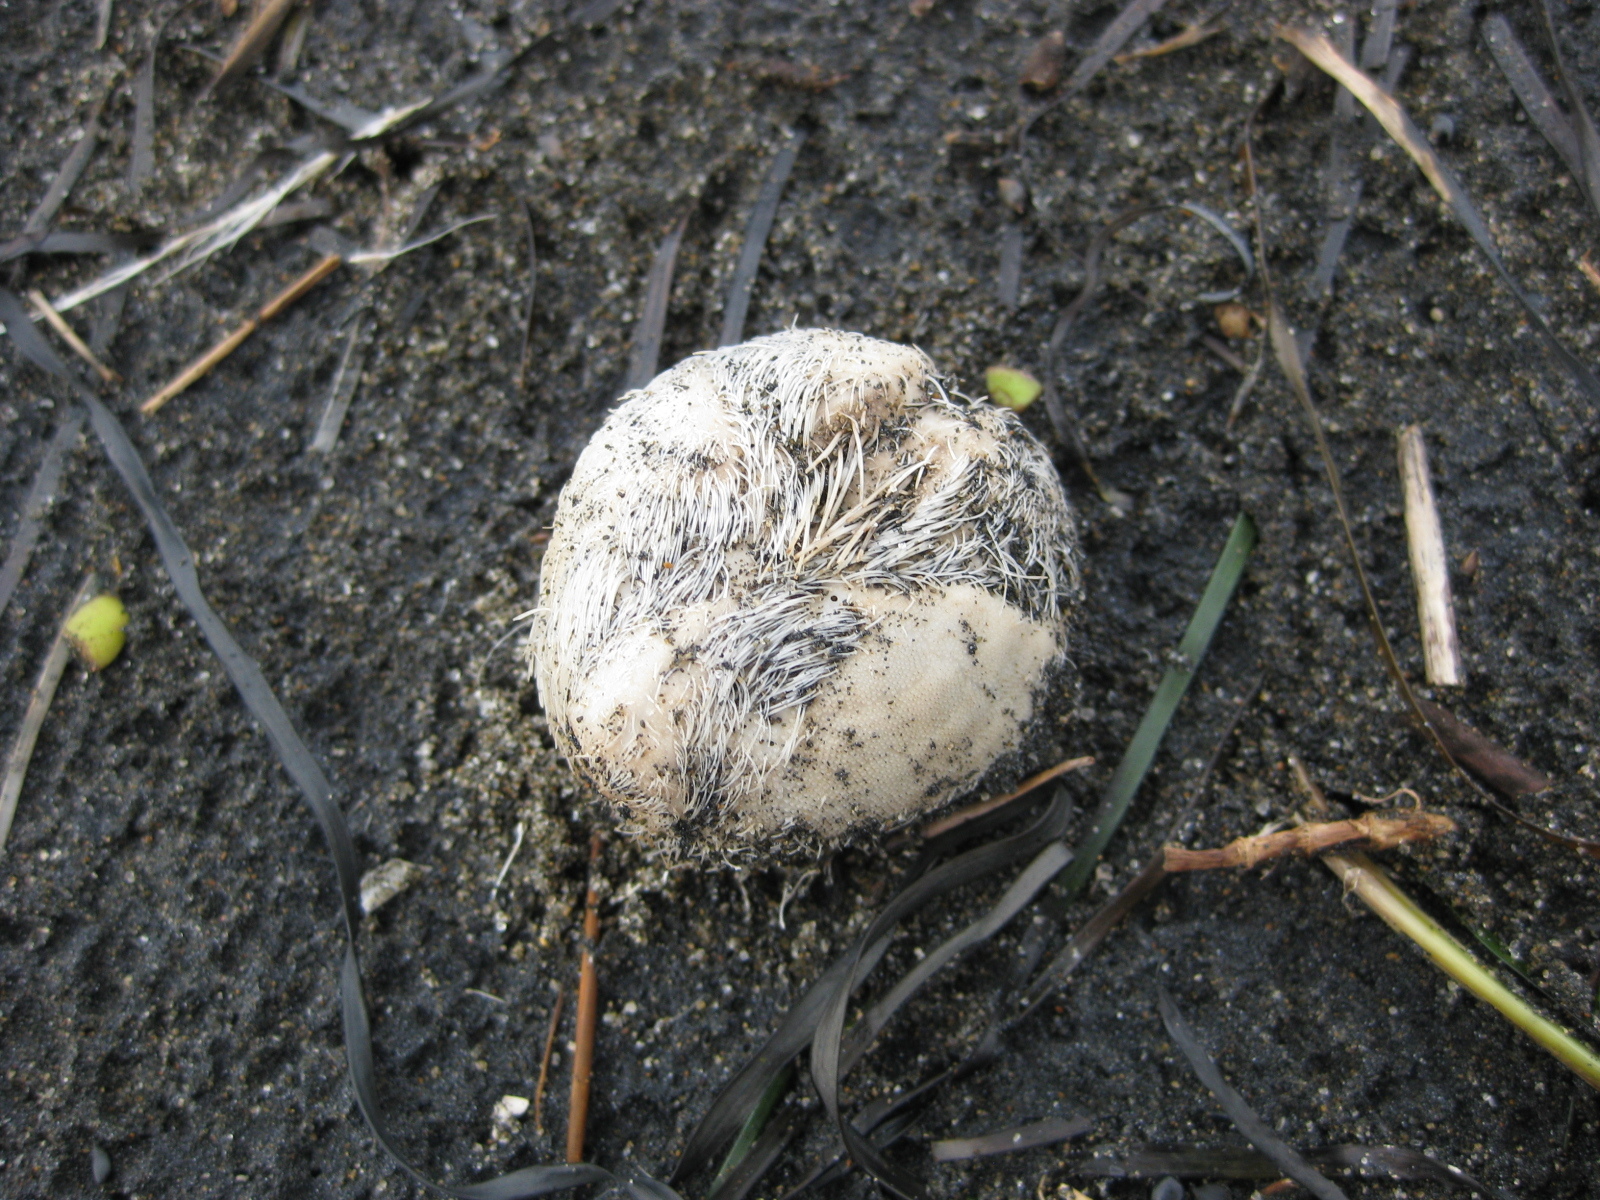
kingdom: Animalia
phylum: Echinodermata
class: Echinoidea
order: Spatangoida
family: Loveniidae
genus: Echinocardium
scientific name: Echinocardium cordatum
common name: Heart-urchin
